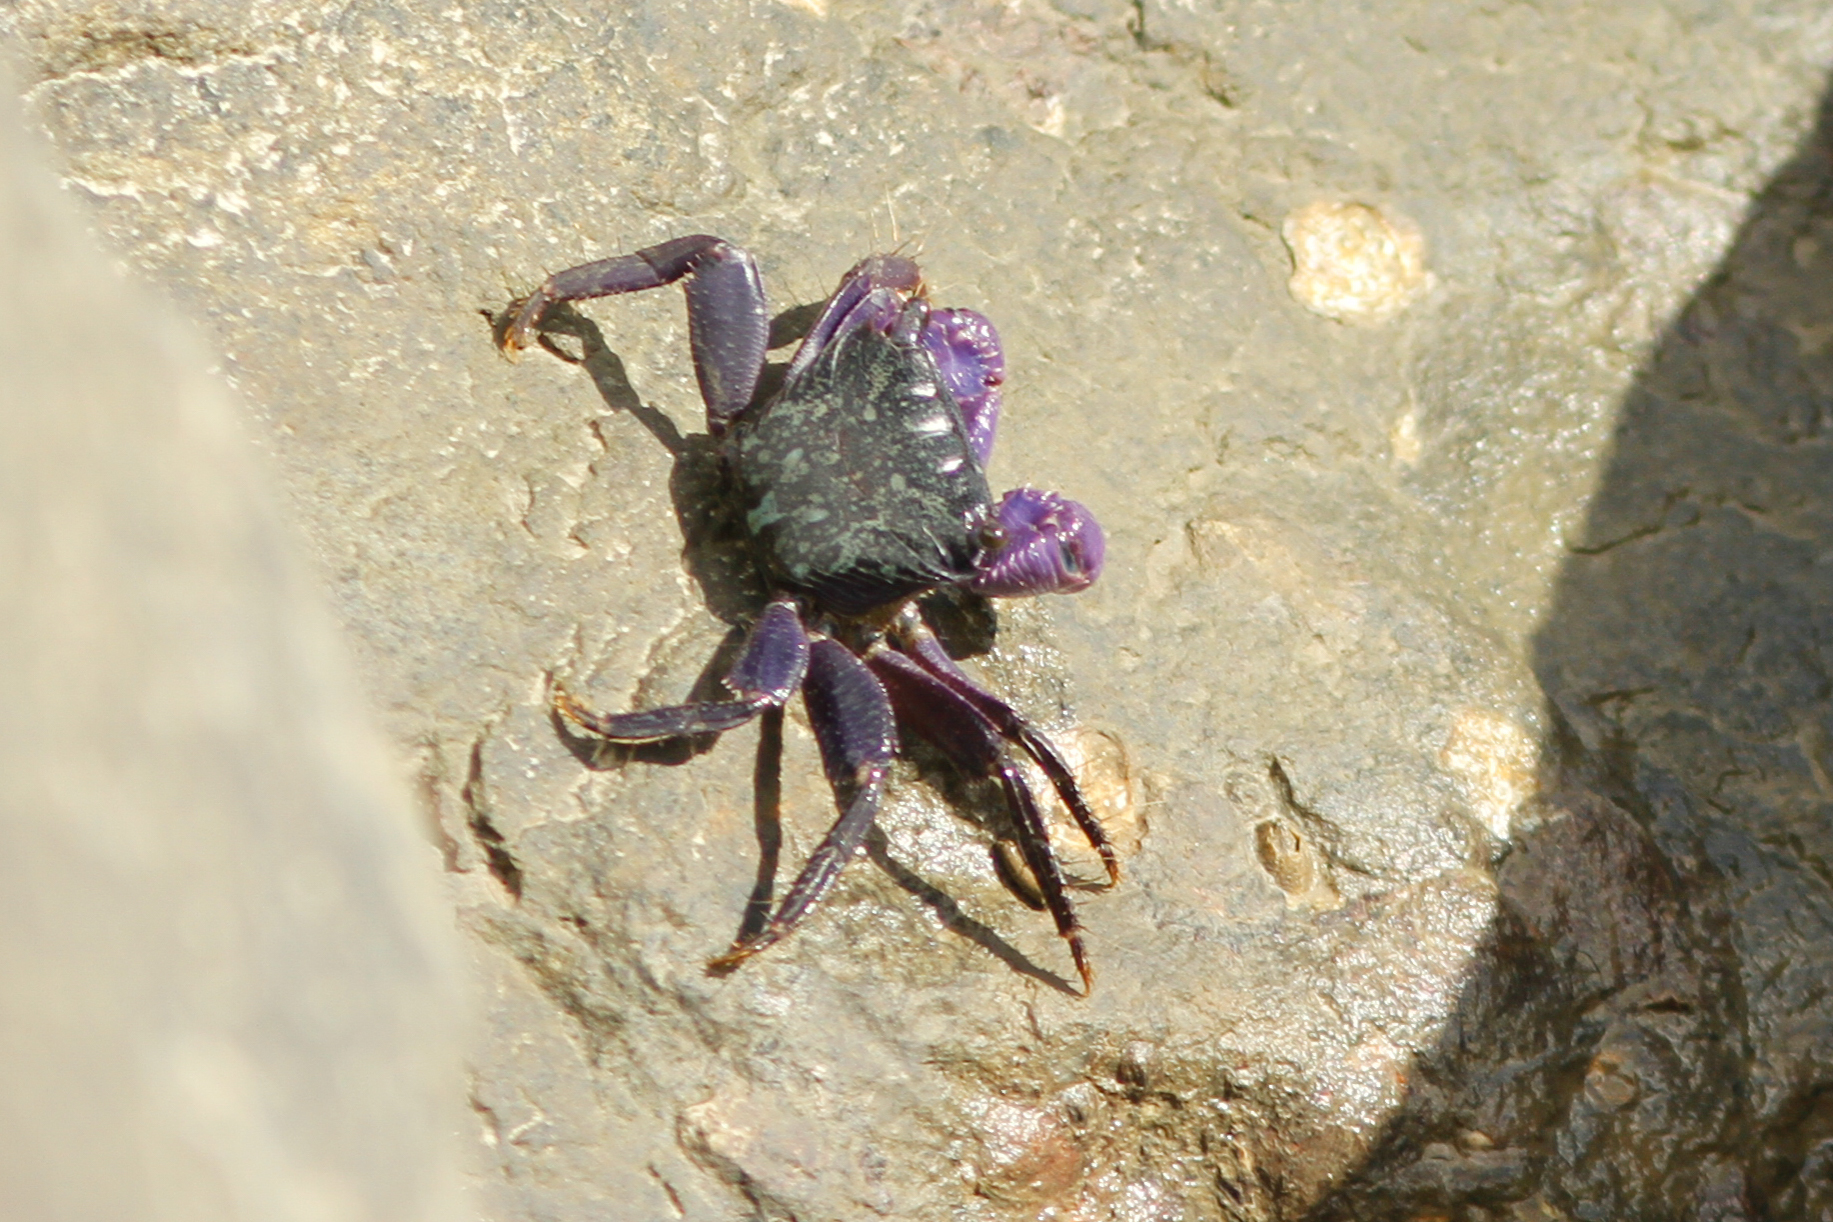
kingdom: Animalia
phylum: Arthropoda
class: Malacostraca
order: Decapoda
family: Grapsidae
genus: Metopograpsus
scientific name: Metopograpsus frontalis
